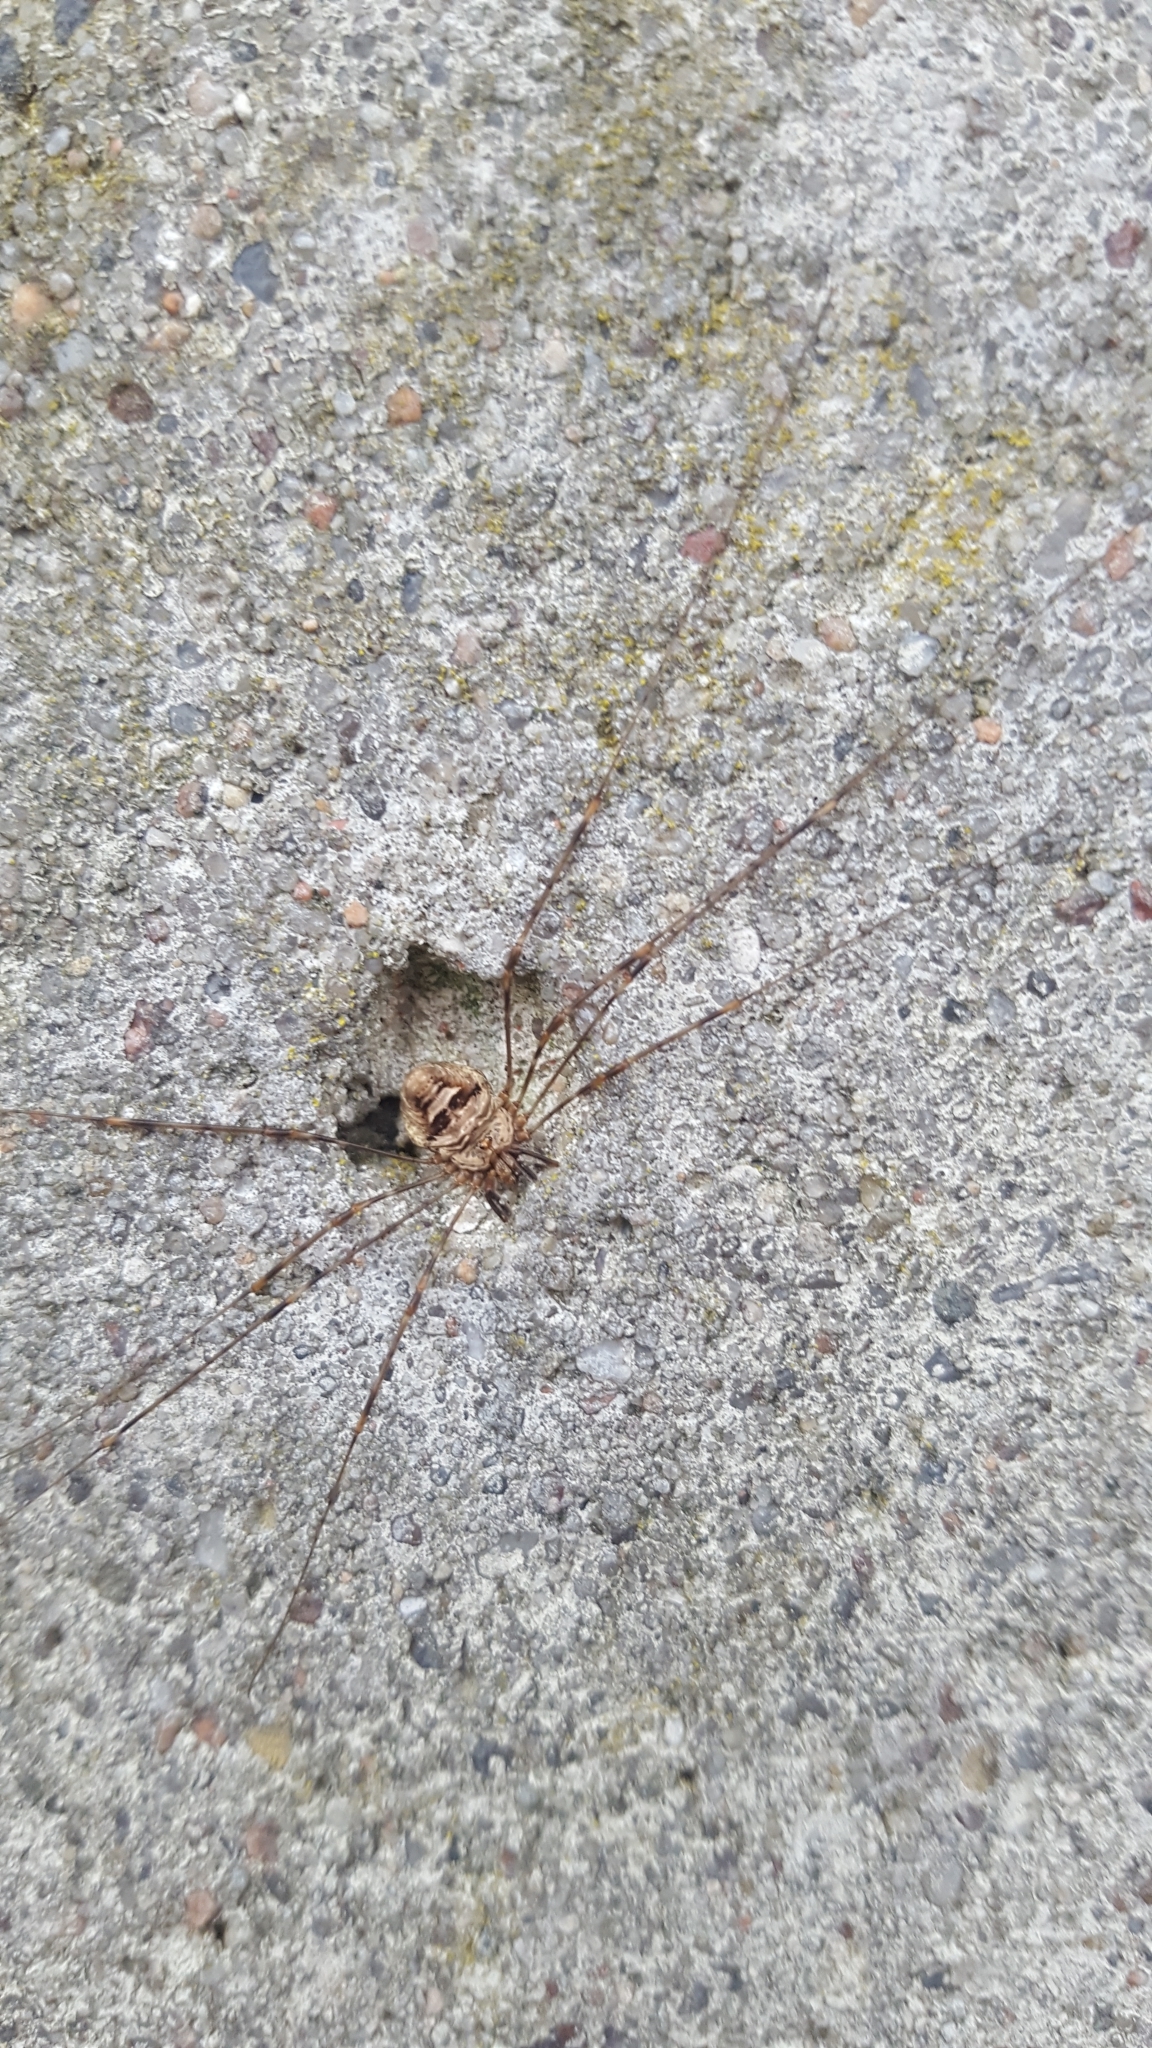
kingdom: Animalia
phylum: Arthropoda
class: Arachnida
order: Opiliones
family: Phalangiidae
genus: Dicranopalpus
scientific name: Dicranopalpus ramosus
